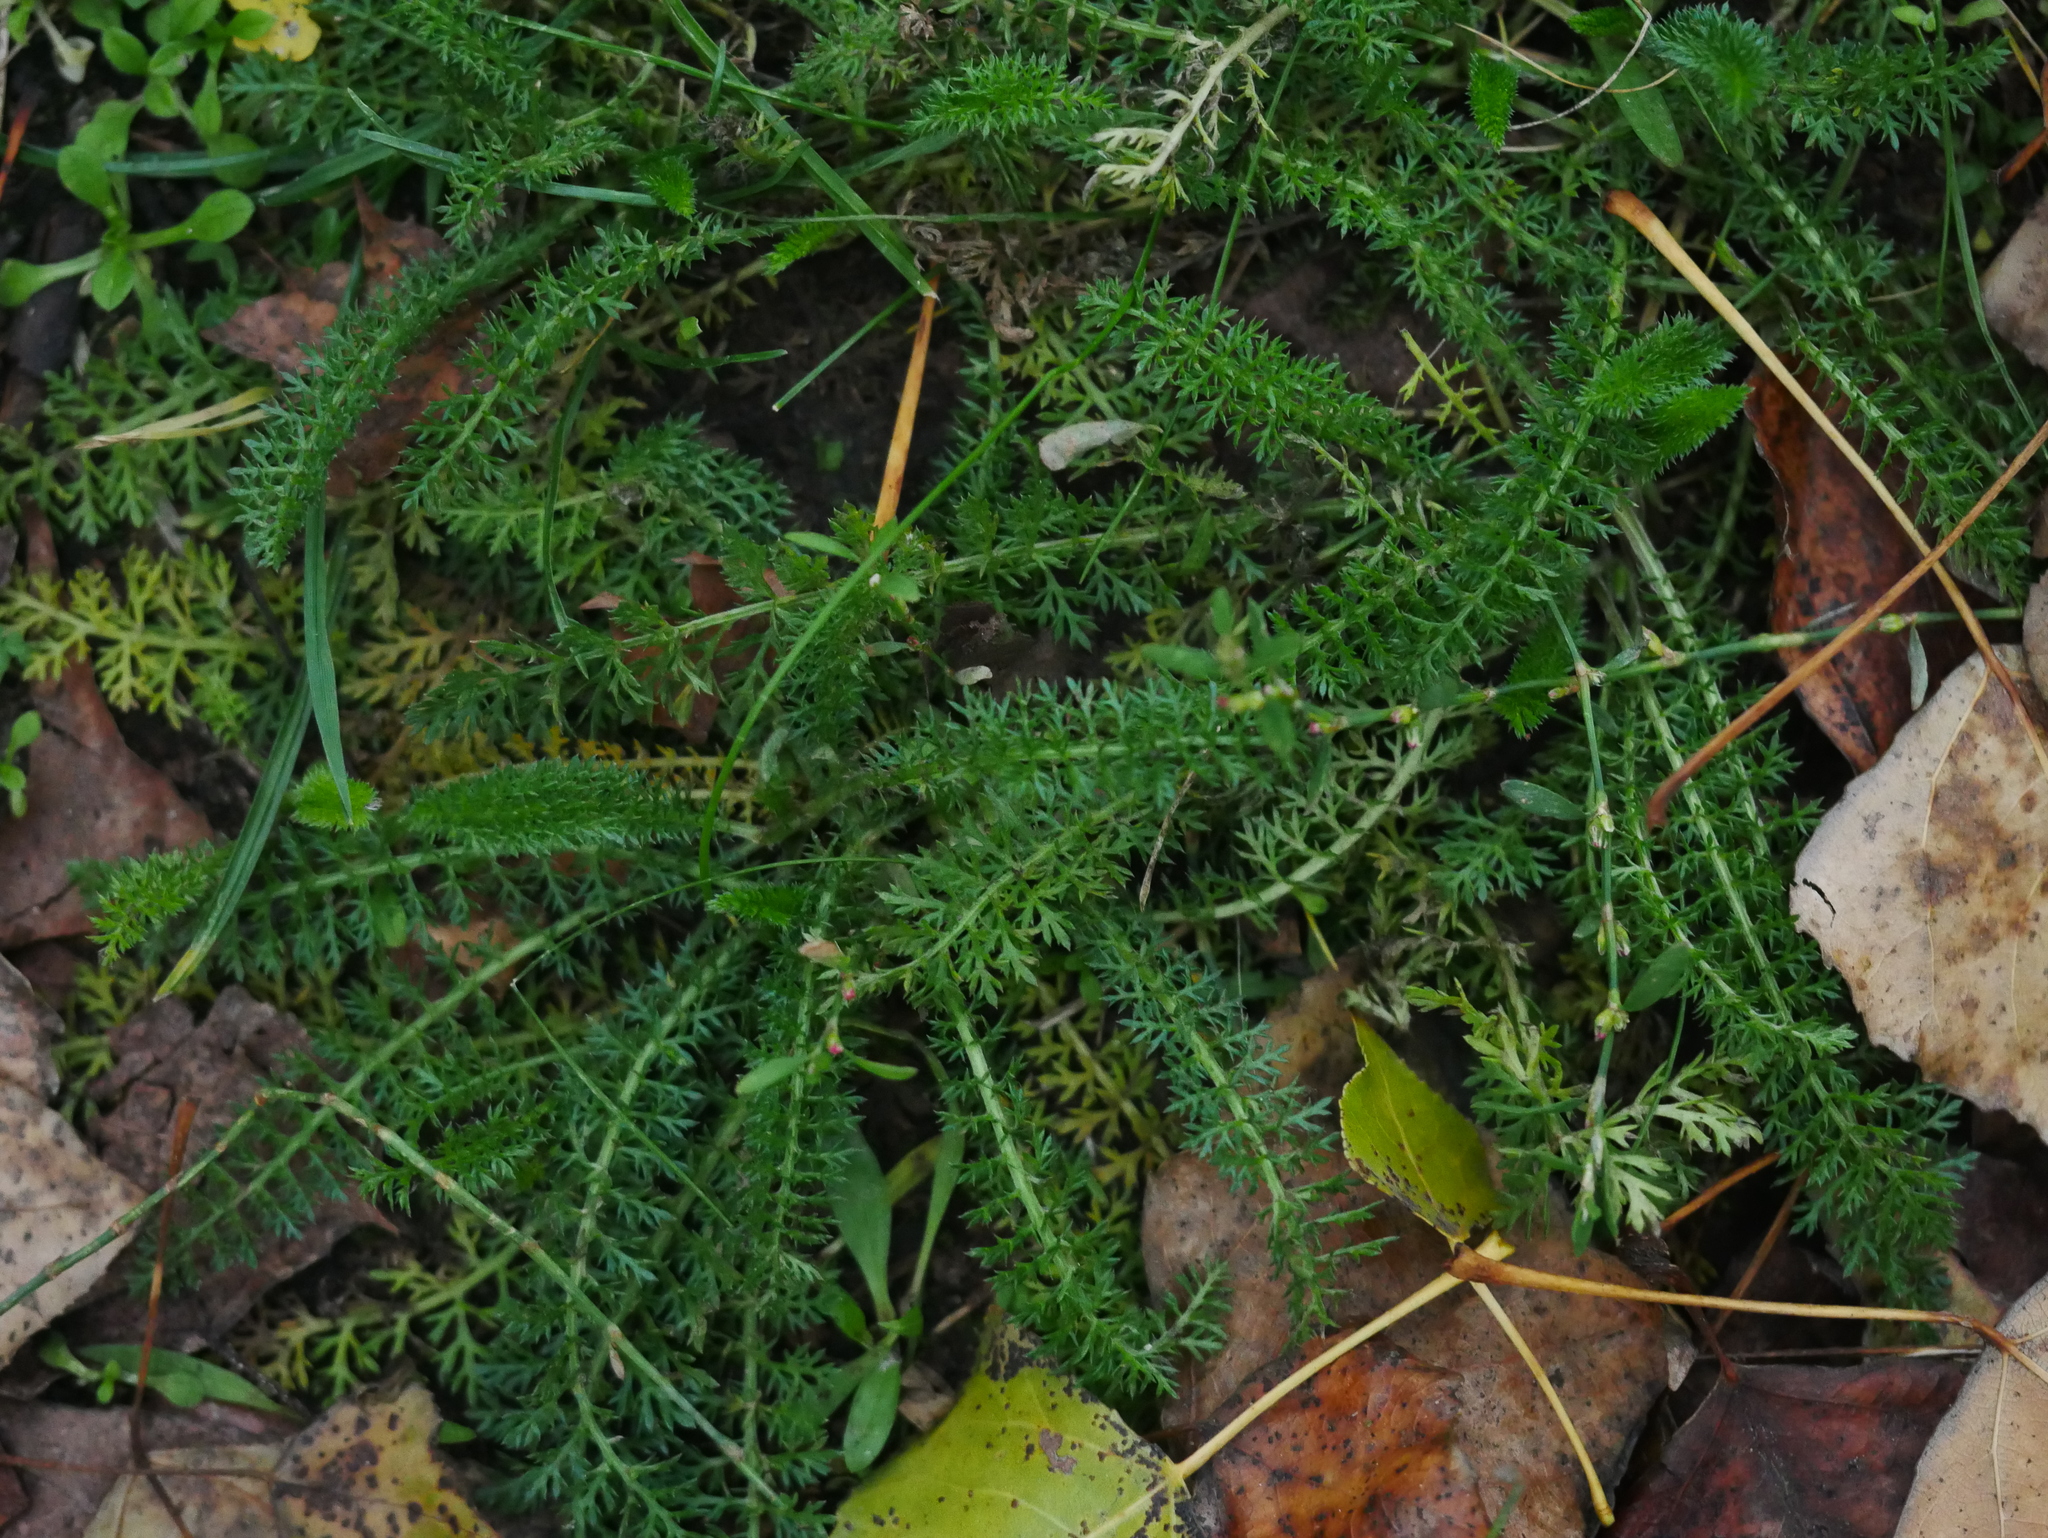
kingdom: Plantae
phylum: Tracheophyta
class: Magnoliopsida
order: Asterales
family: Asteraceae
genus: Achillea
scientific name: Achillea millefolium
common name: Yarrow
